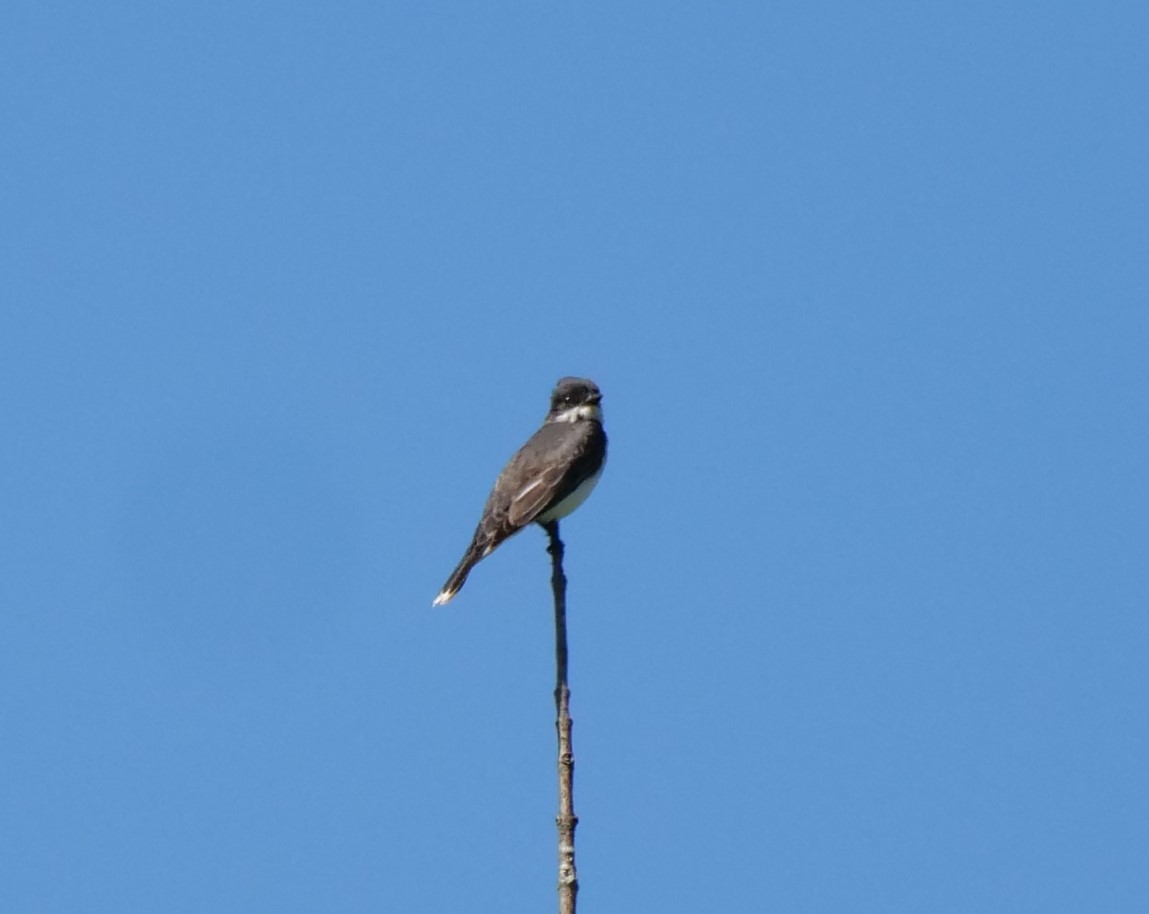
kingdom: Animalia
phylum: Chordata
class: Aves
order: Passeriformes
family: Tyrannidae
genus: Tyrannus
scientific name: Tyrannus tyrannus
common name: Eastern kingbird
